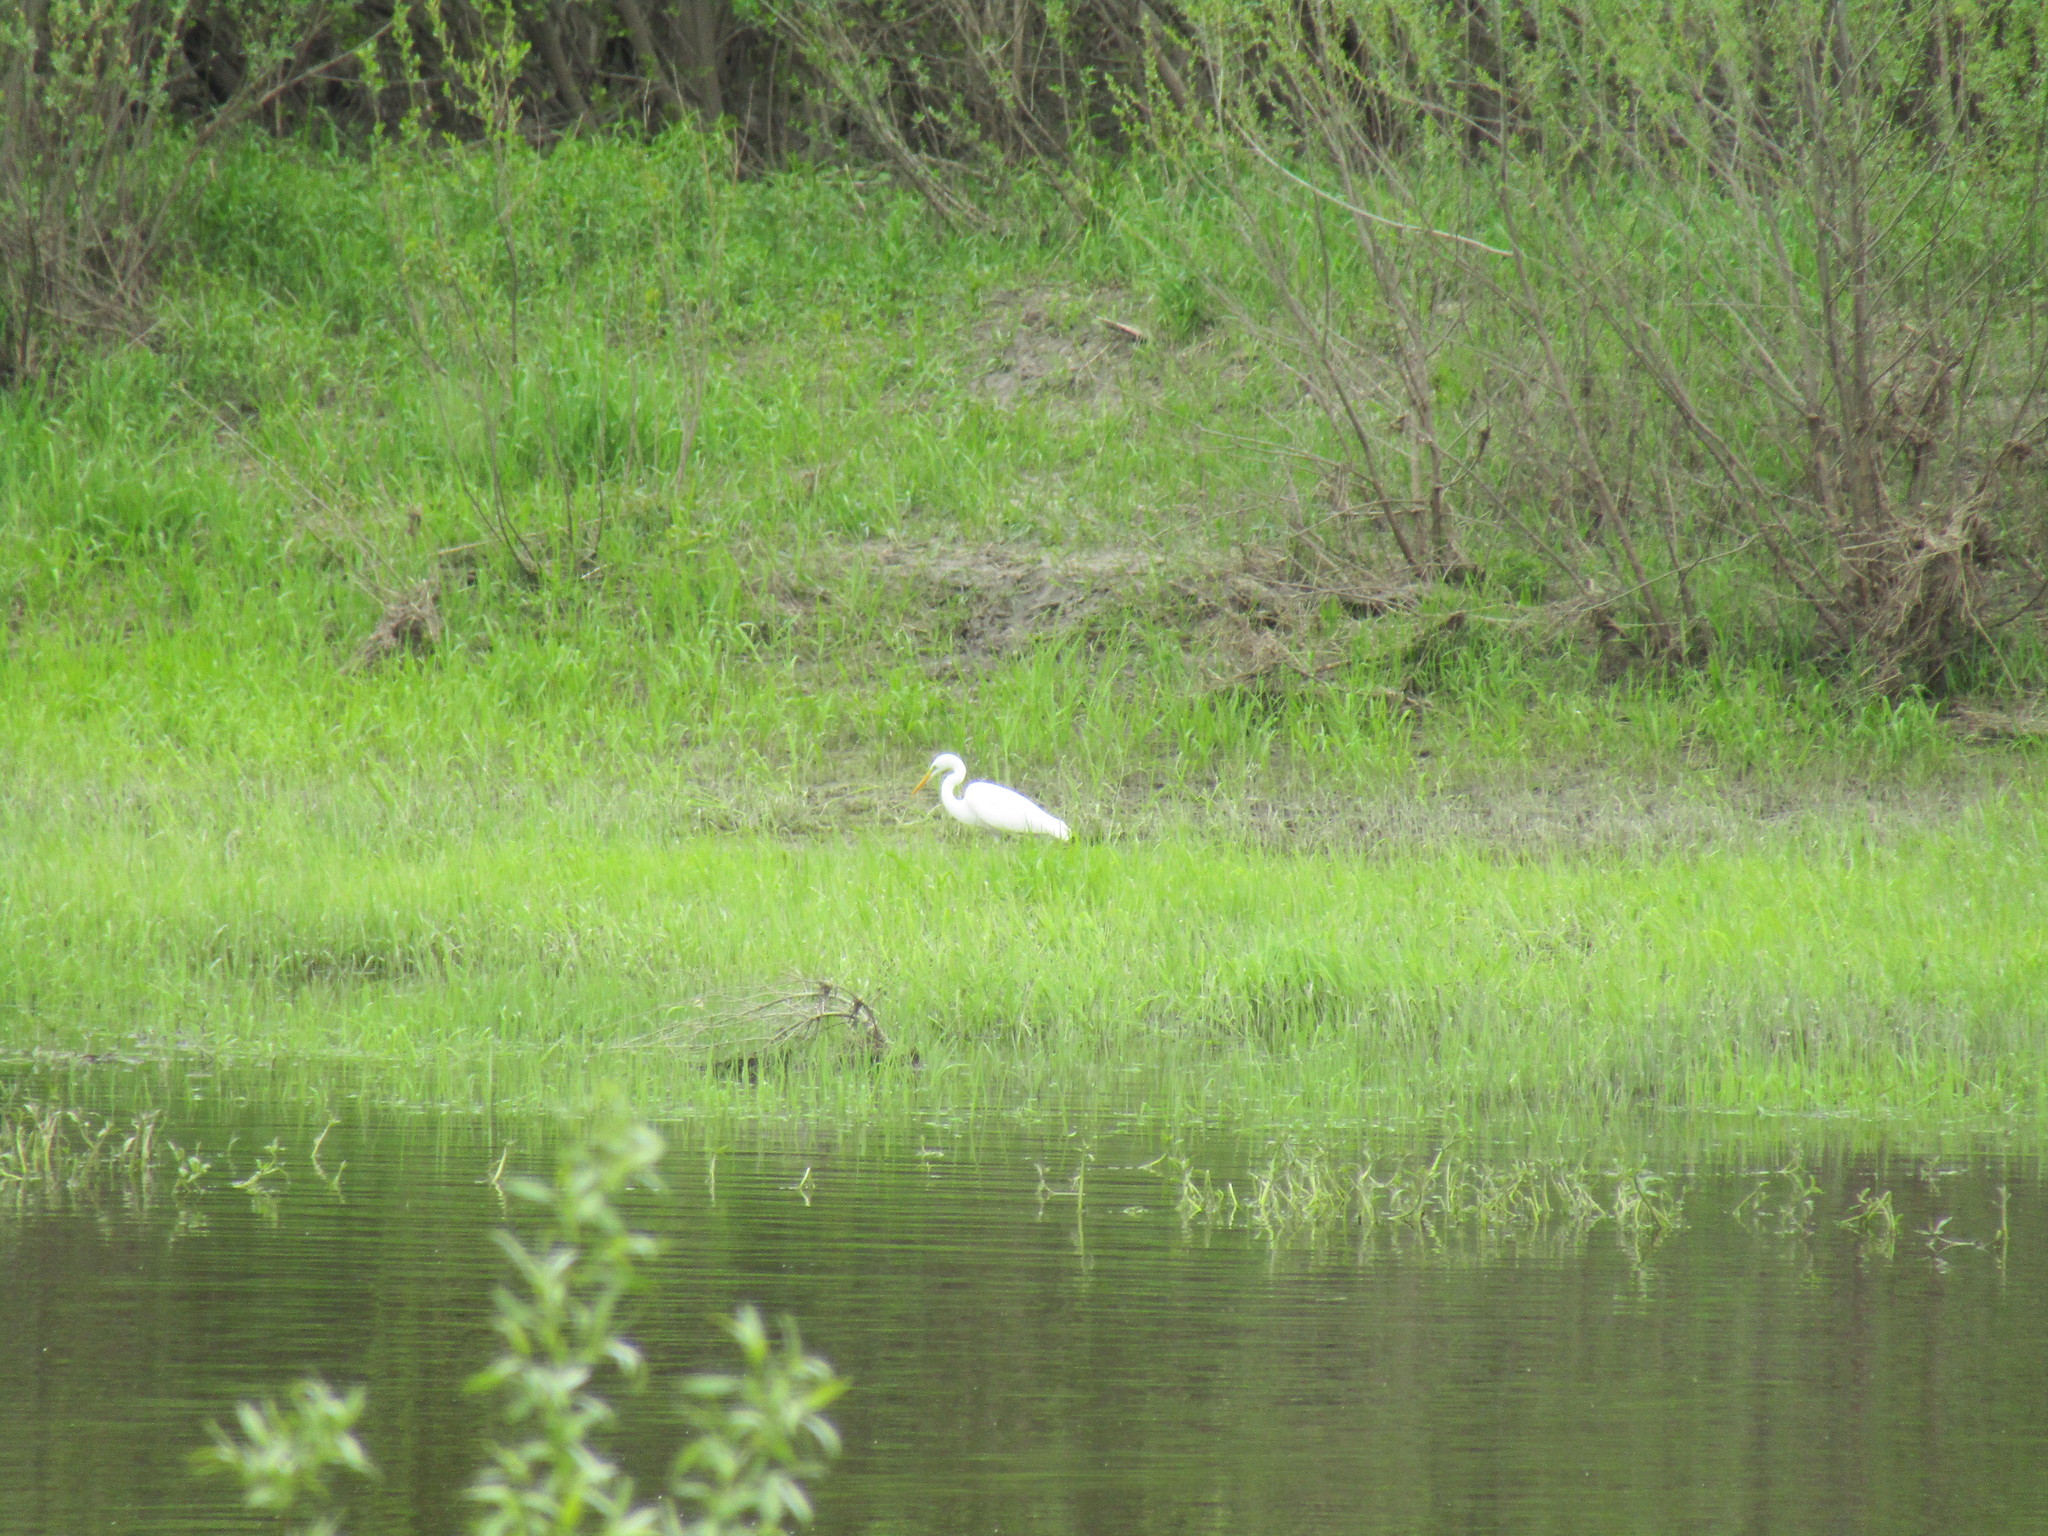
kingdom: Animalia
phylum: Chordata
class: Aves
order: Pelecaniformes
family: Ardeidae
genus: Ardea
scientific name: Ardea alba
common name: Great egret
